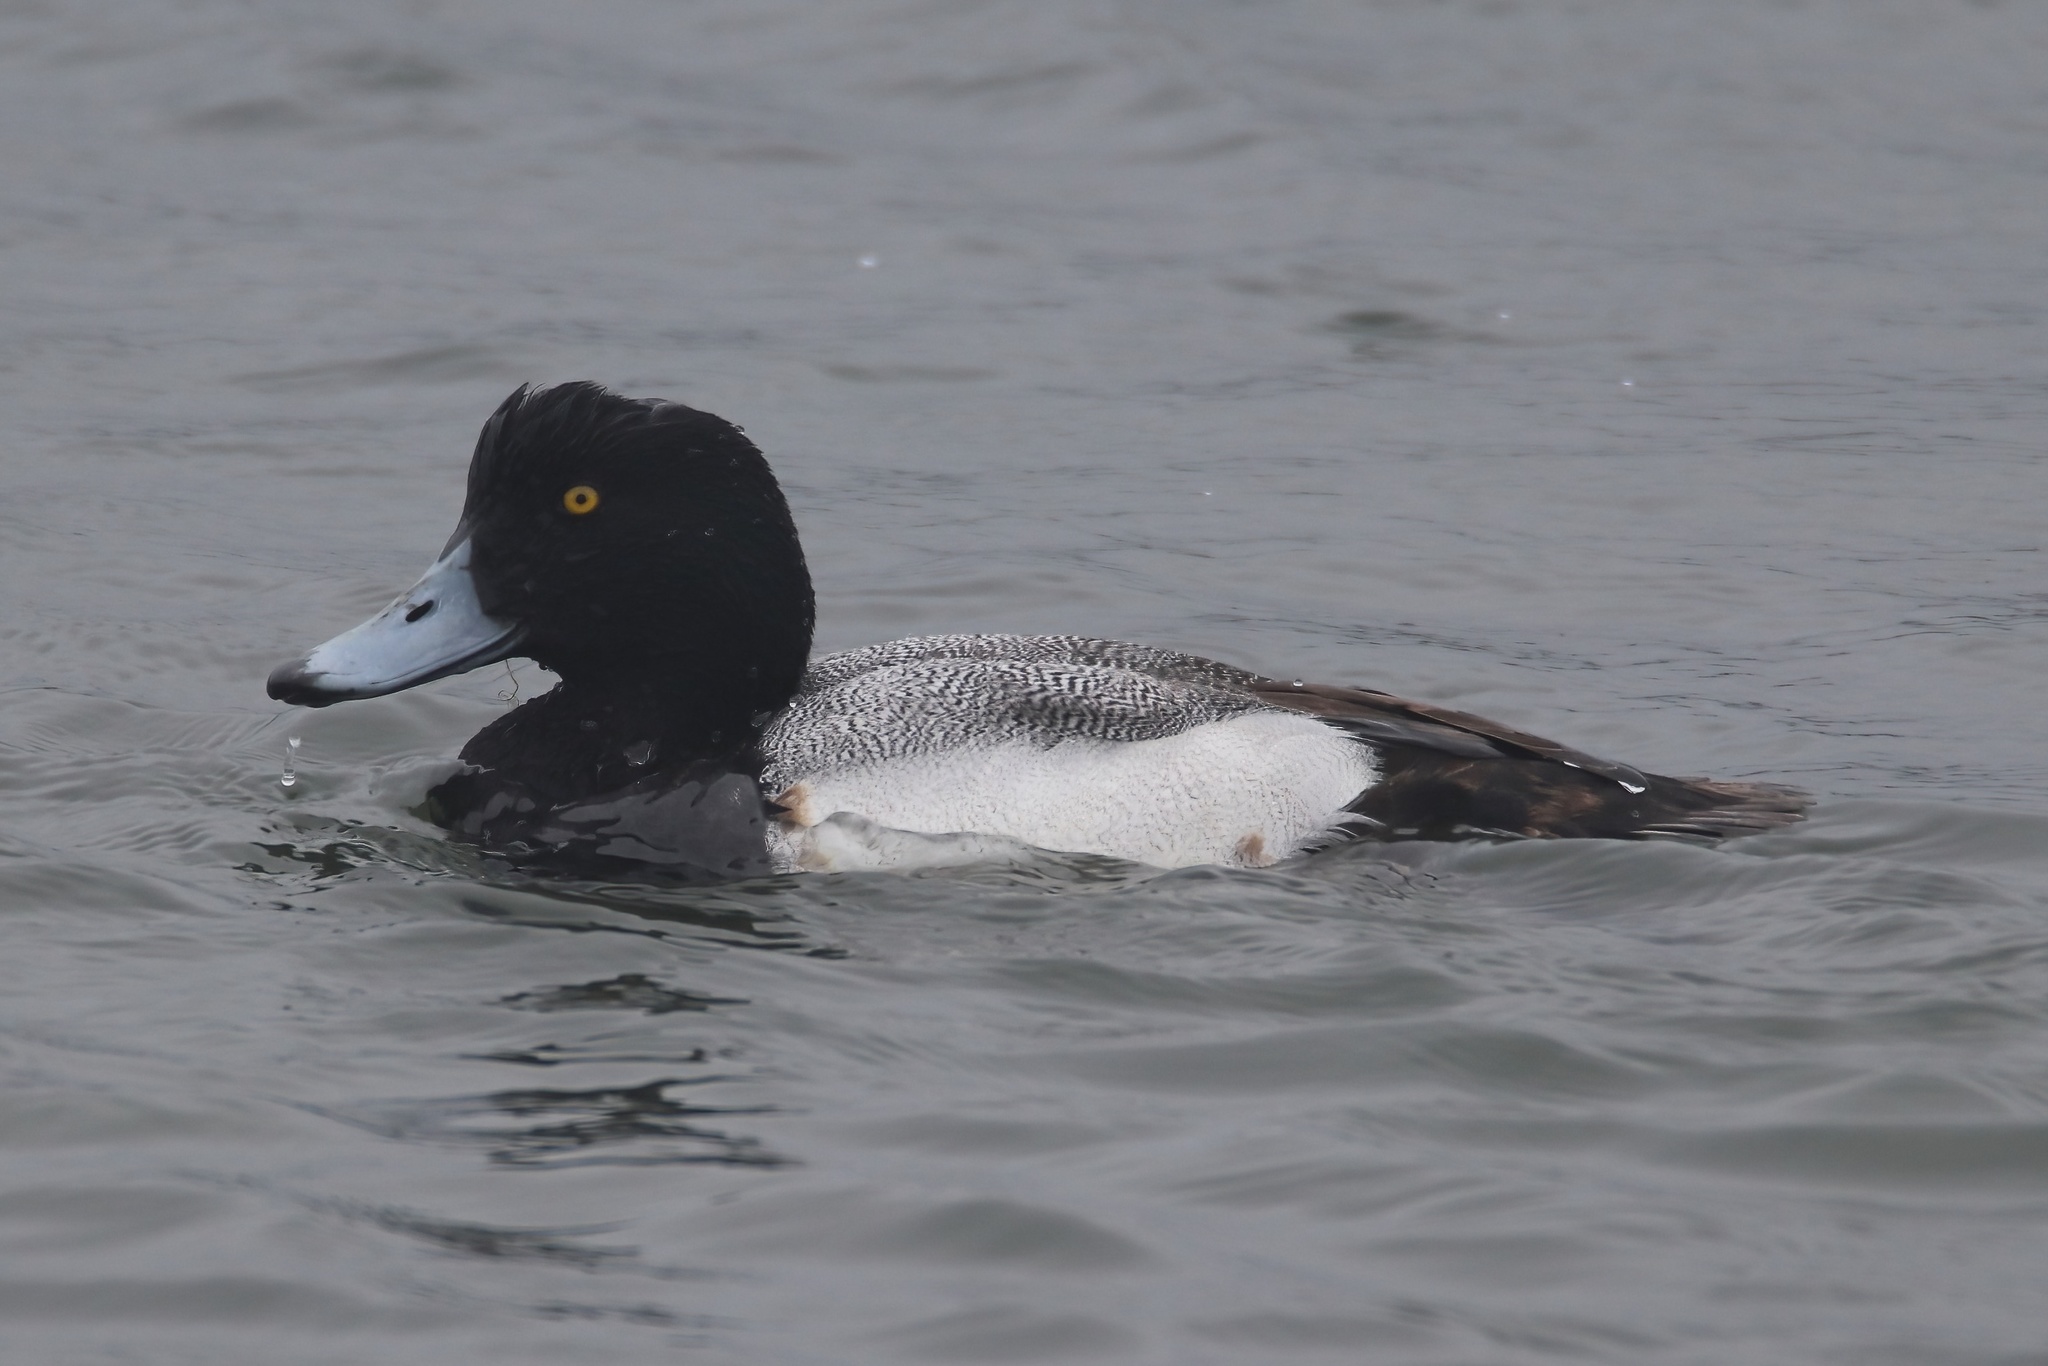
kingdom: Animalia
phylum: Chordata
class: Aves
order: Anseriformes
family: Anatidae
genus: Aythya
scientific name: Aythya marila
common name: Greater scaup
